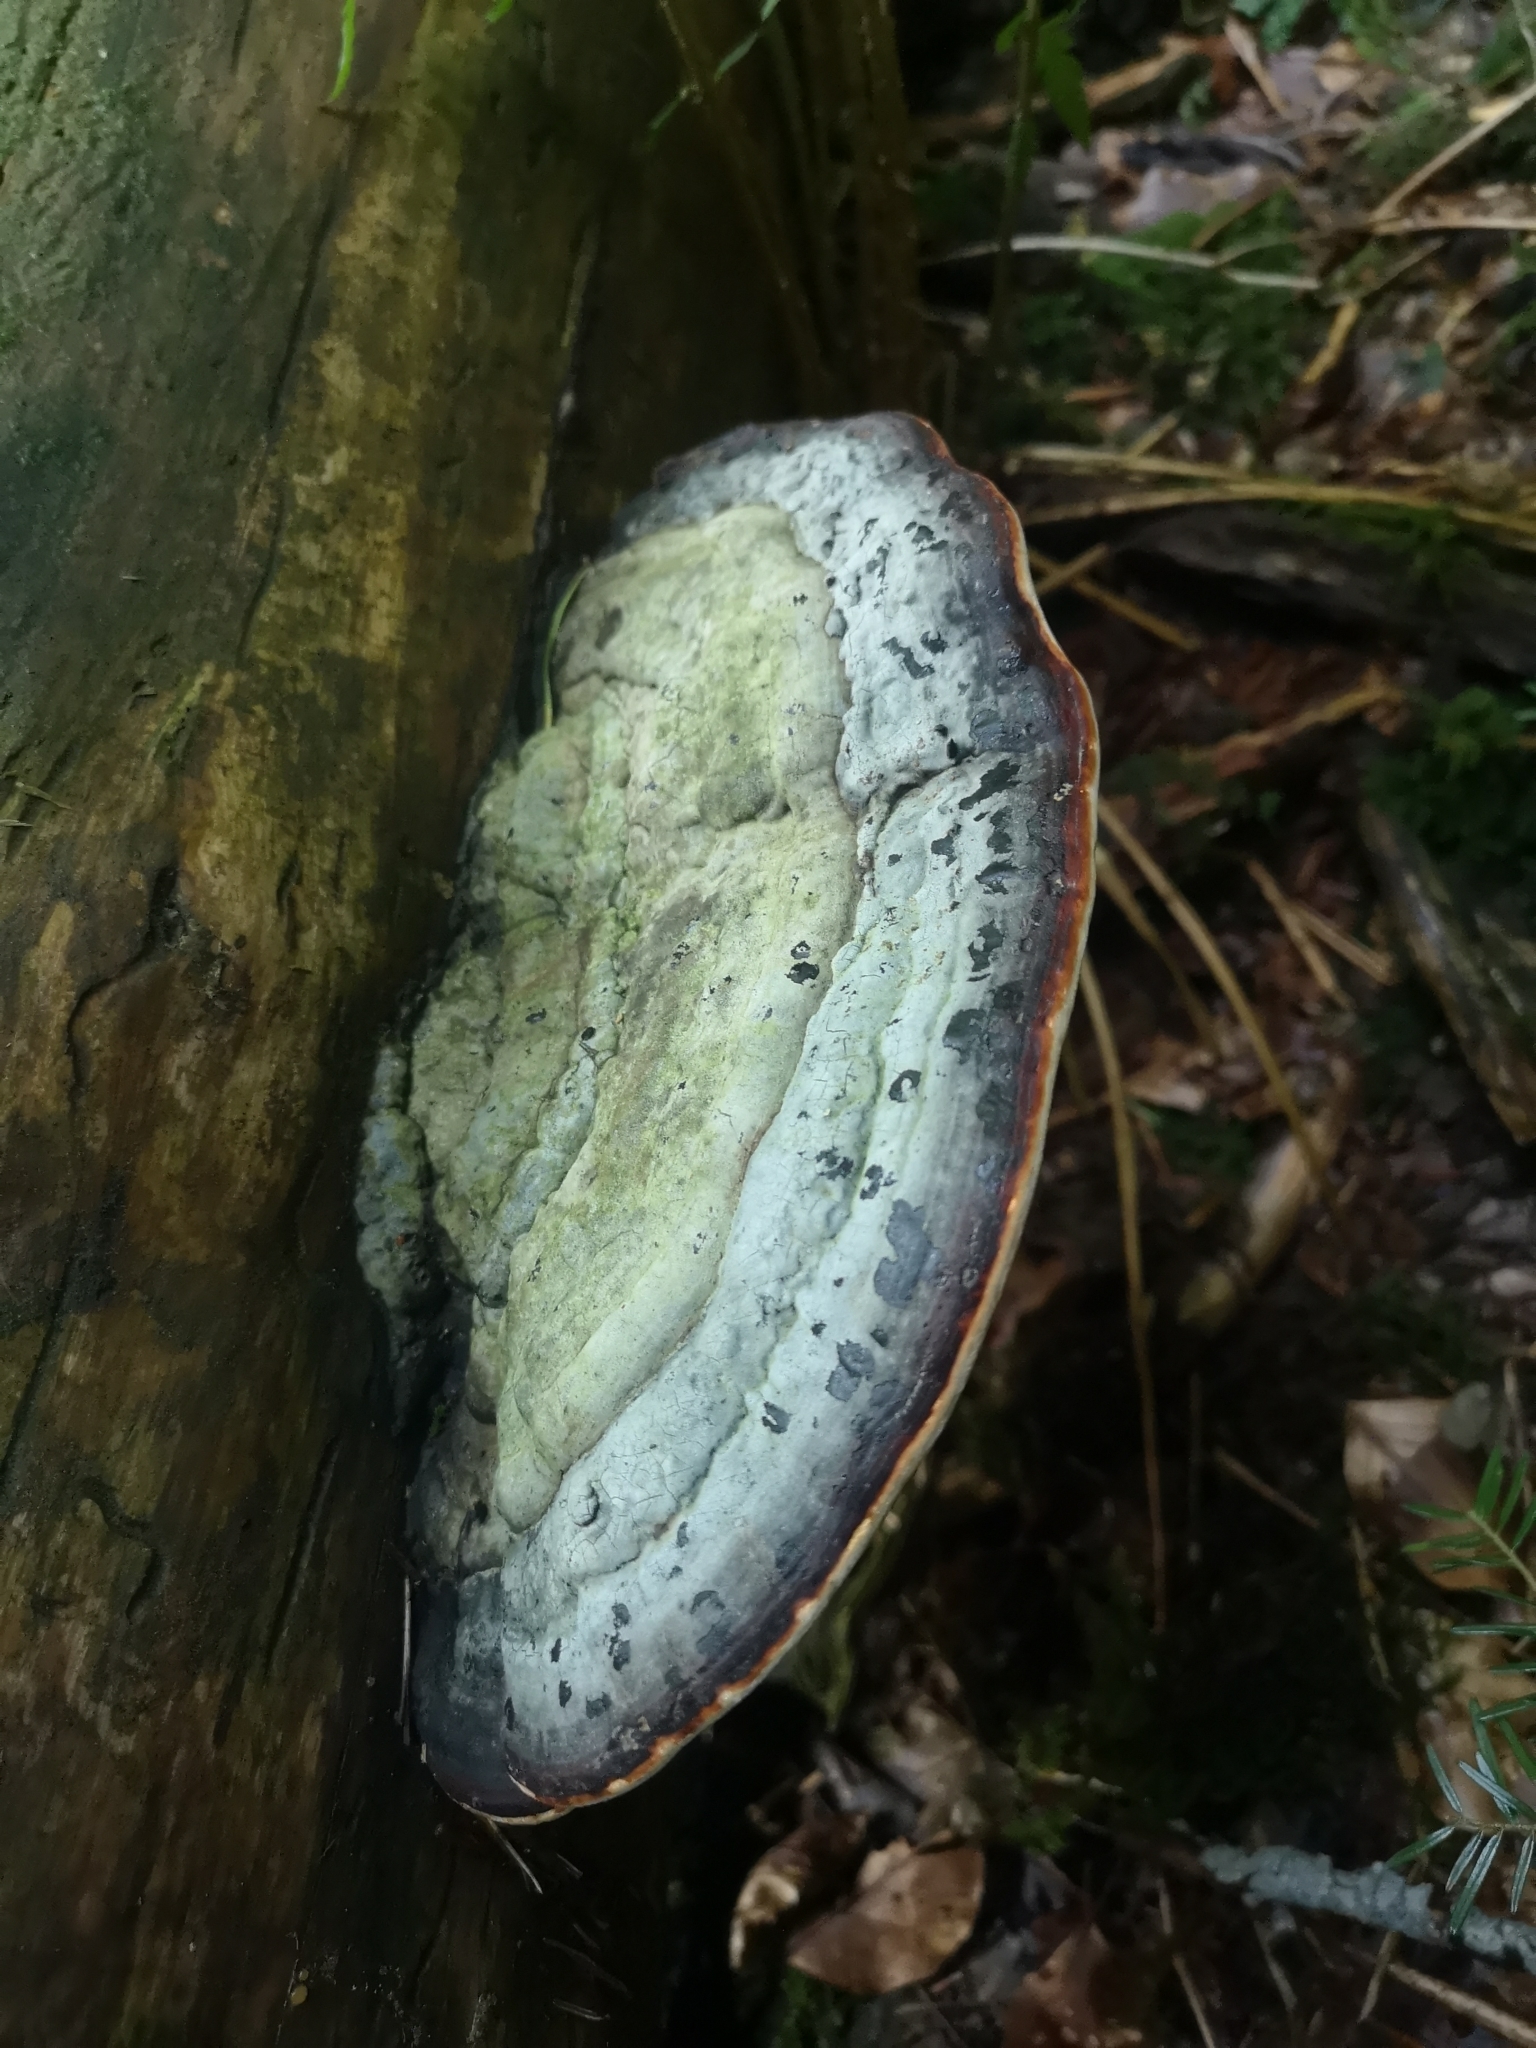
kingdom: Fungi
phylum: Basidiomycota
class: Agaricomycetes
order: Polyporales
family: Fomitopsidaceae
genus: Fomitopsis
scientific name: Fomitopsis pinicola
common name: Red-belted bracket
